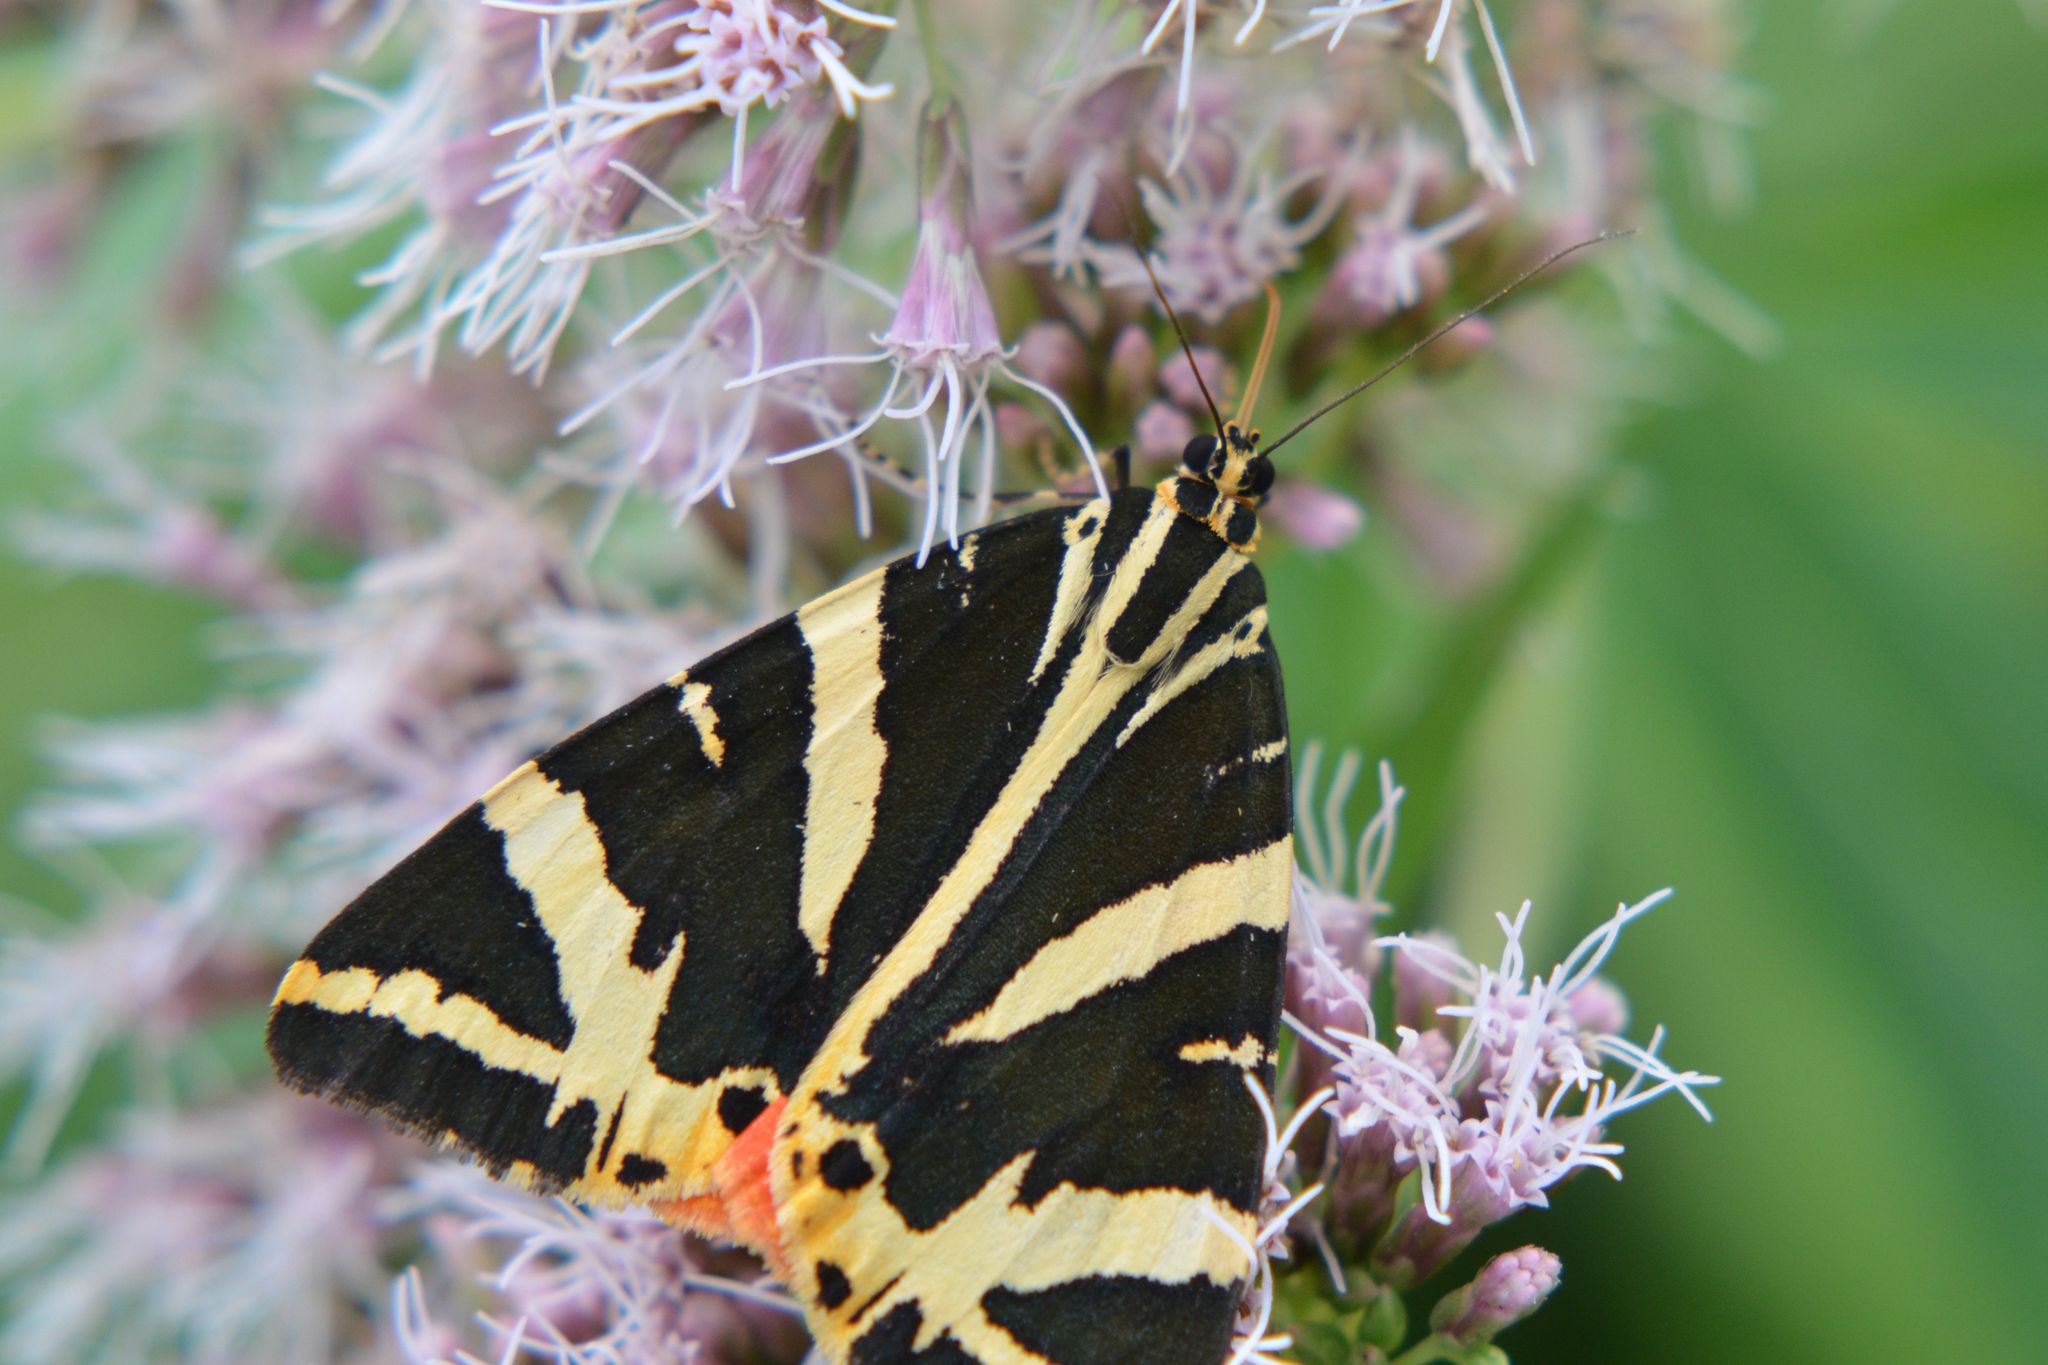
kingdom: Animalia
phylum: Arthropoda
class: Insecta
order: Lepidoptera
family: Erebidae
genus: Euplagia
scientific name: Euplagia quadripunctaria
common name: Jersey tiger
